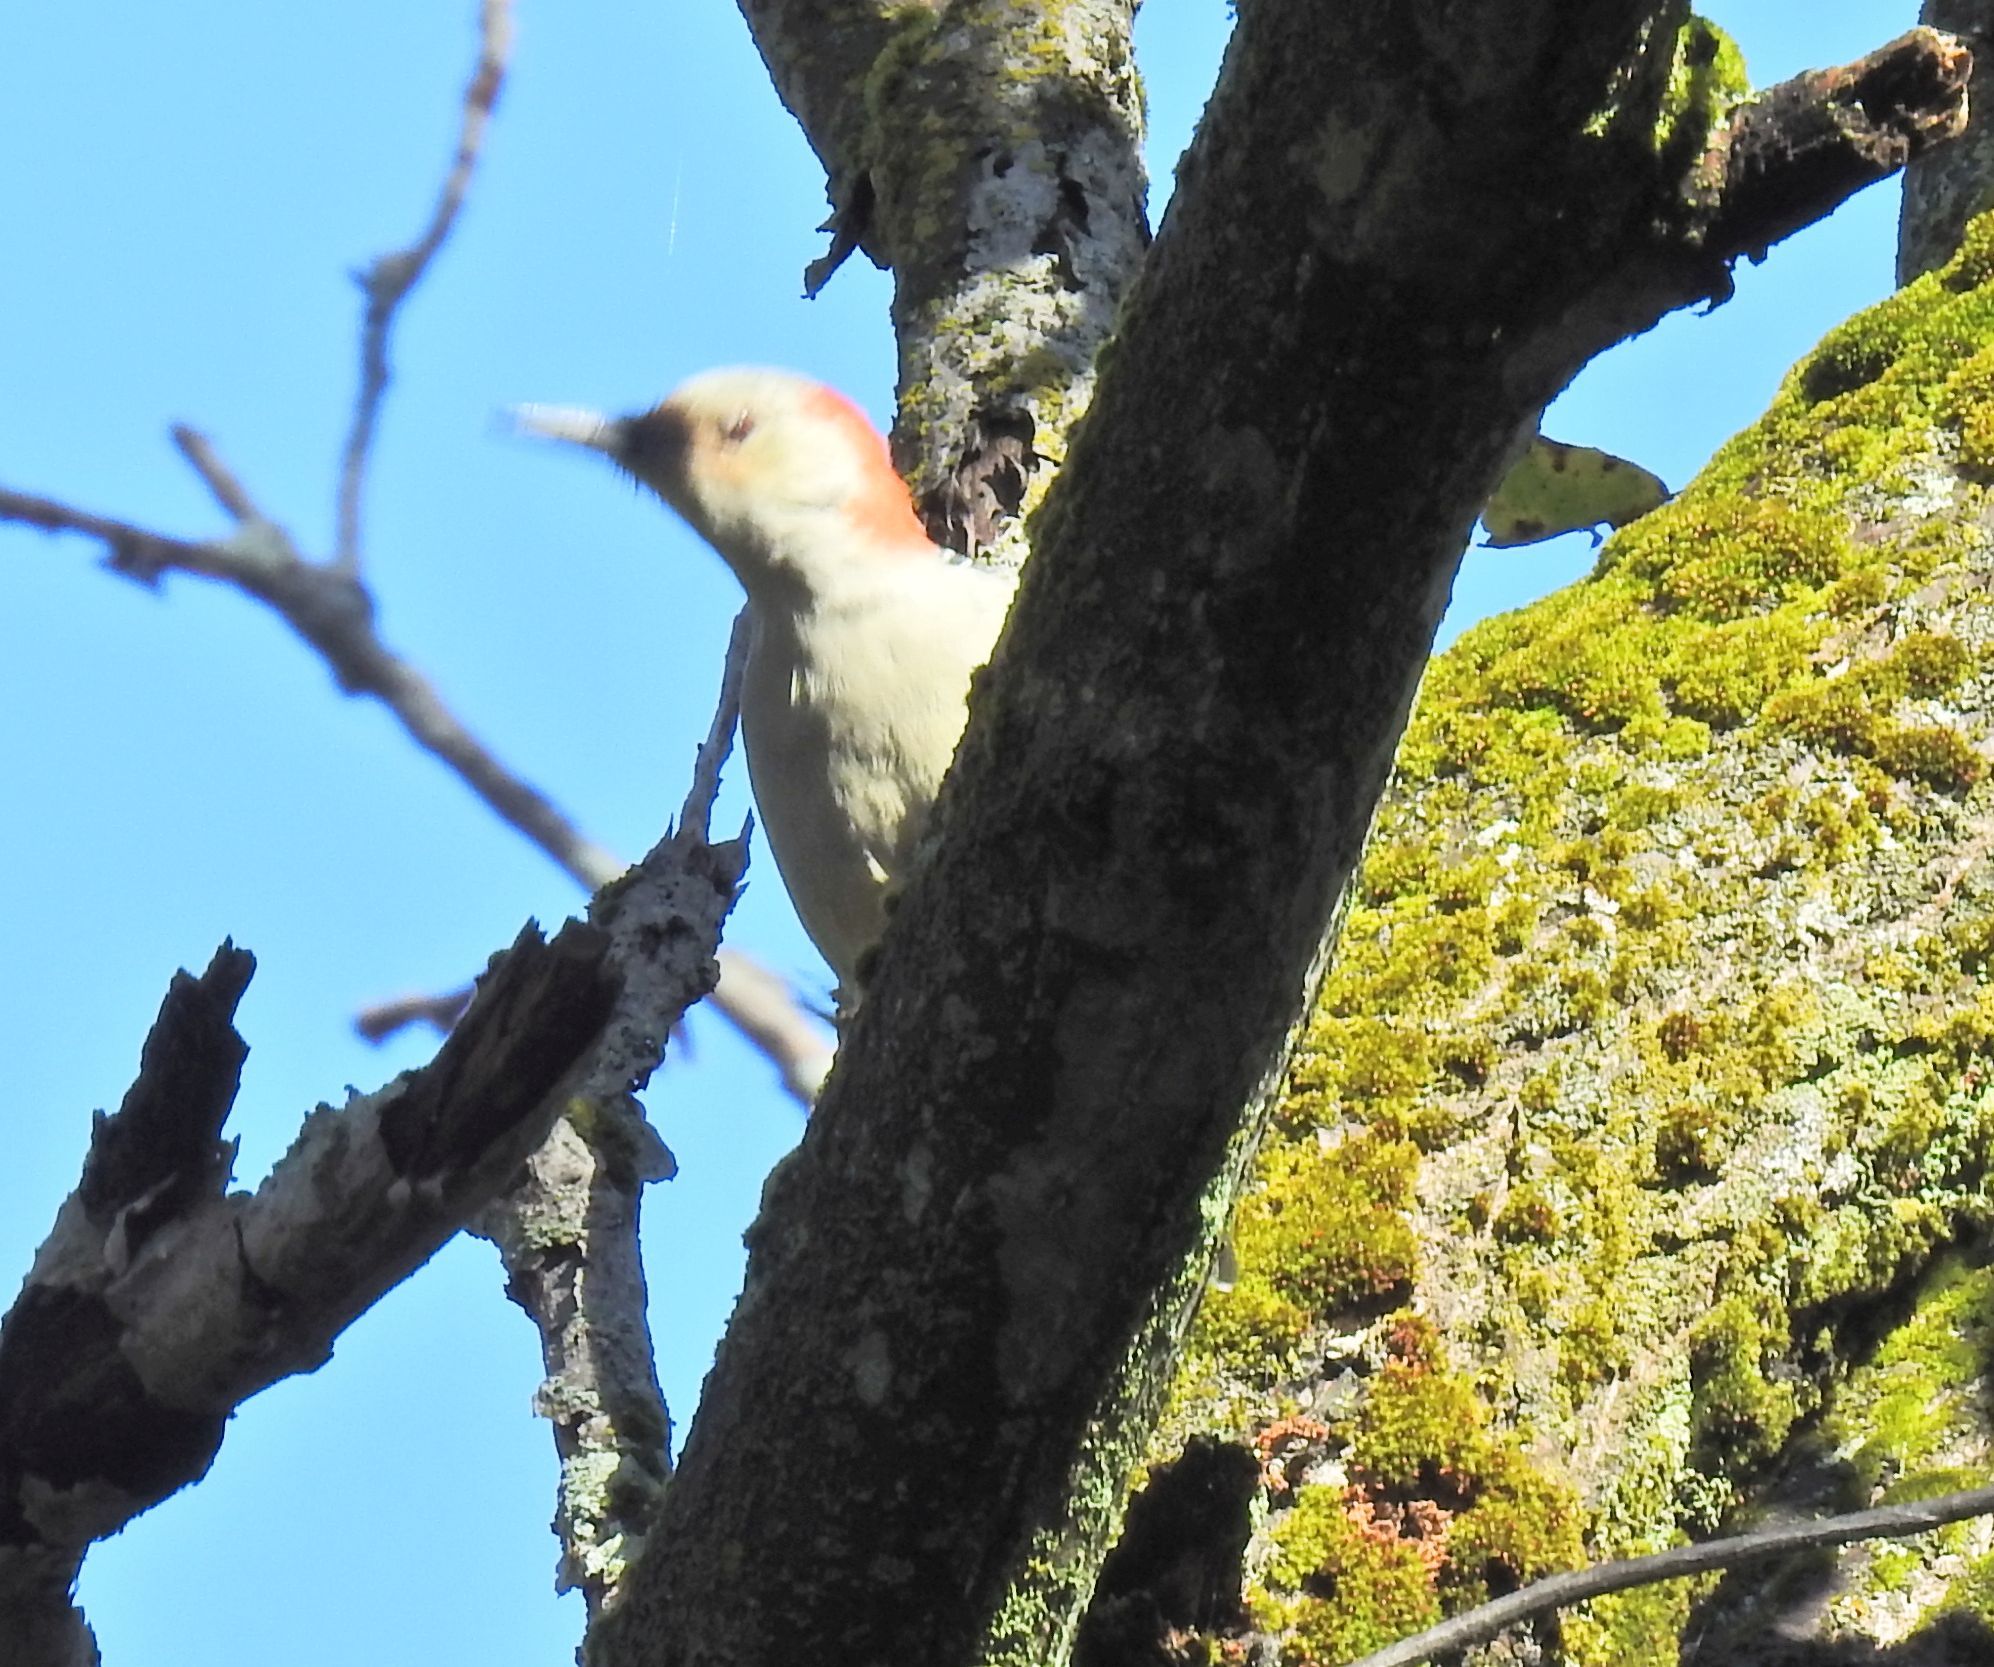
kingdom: Animalia
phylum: Chordata
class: Aves
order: Piciformes
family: Picidae
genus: Melanerpes
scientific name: Melanerpes carolinus
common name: Red-bellied woodpecker
